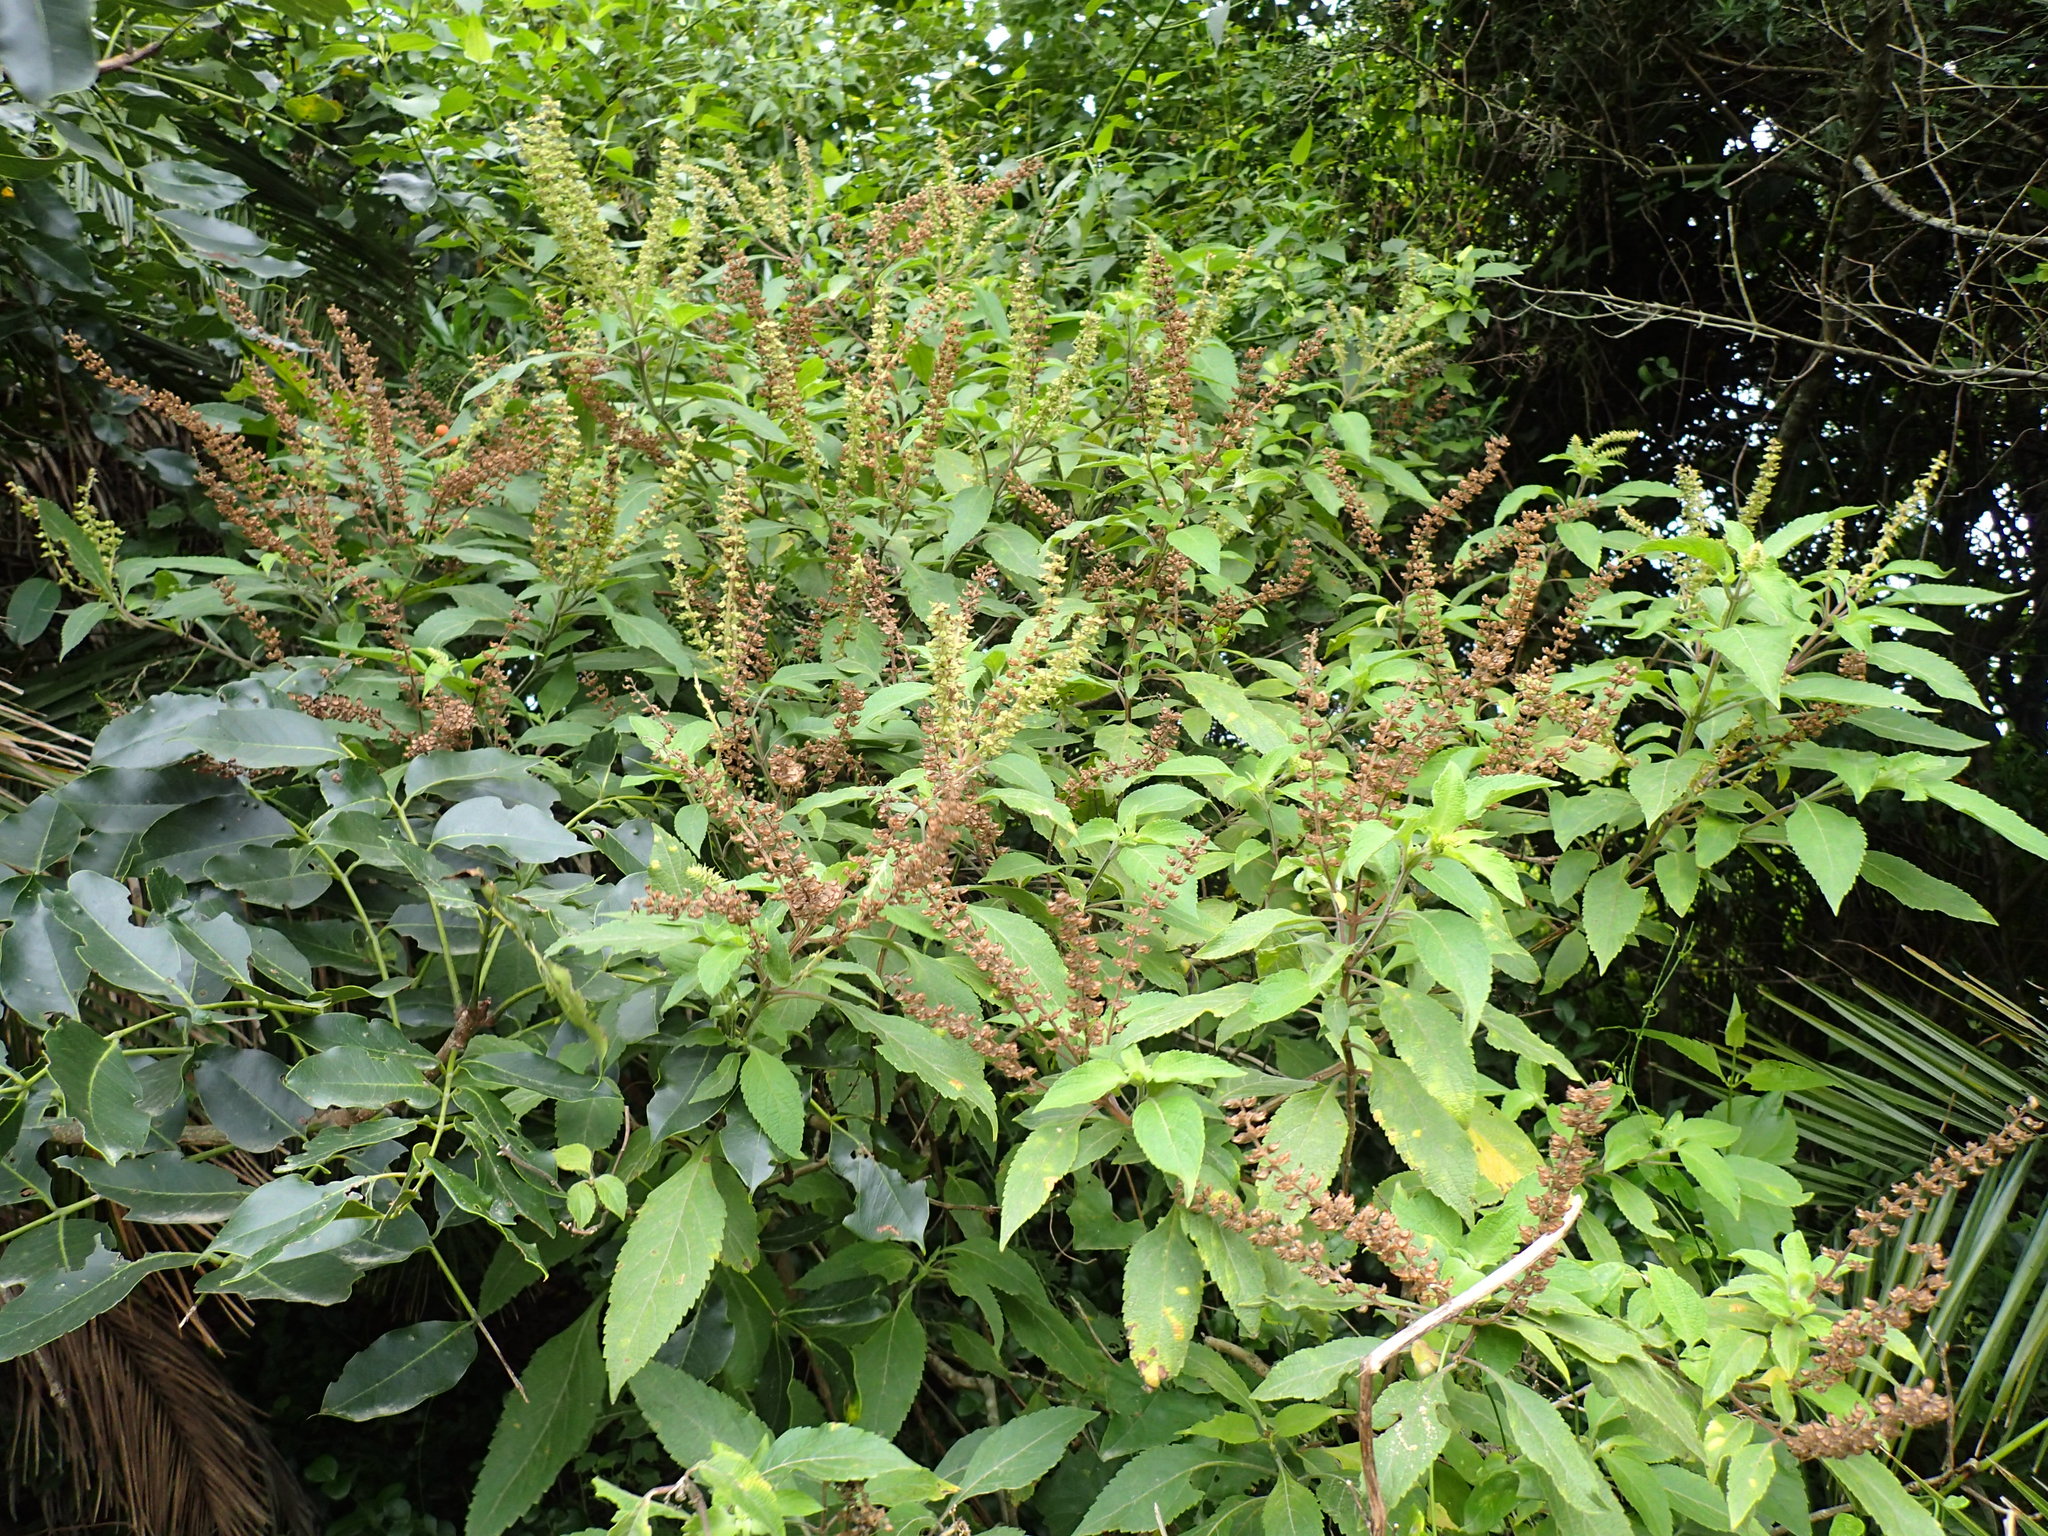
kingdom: Plantae
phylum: Tracheophyta
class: Magnoliopsida
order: Lamiales
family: Lamiaceae
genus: Ocimum
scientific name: Ocimum gratissimum
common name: African basil
